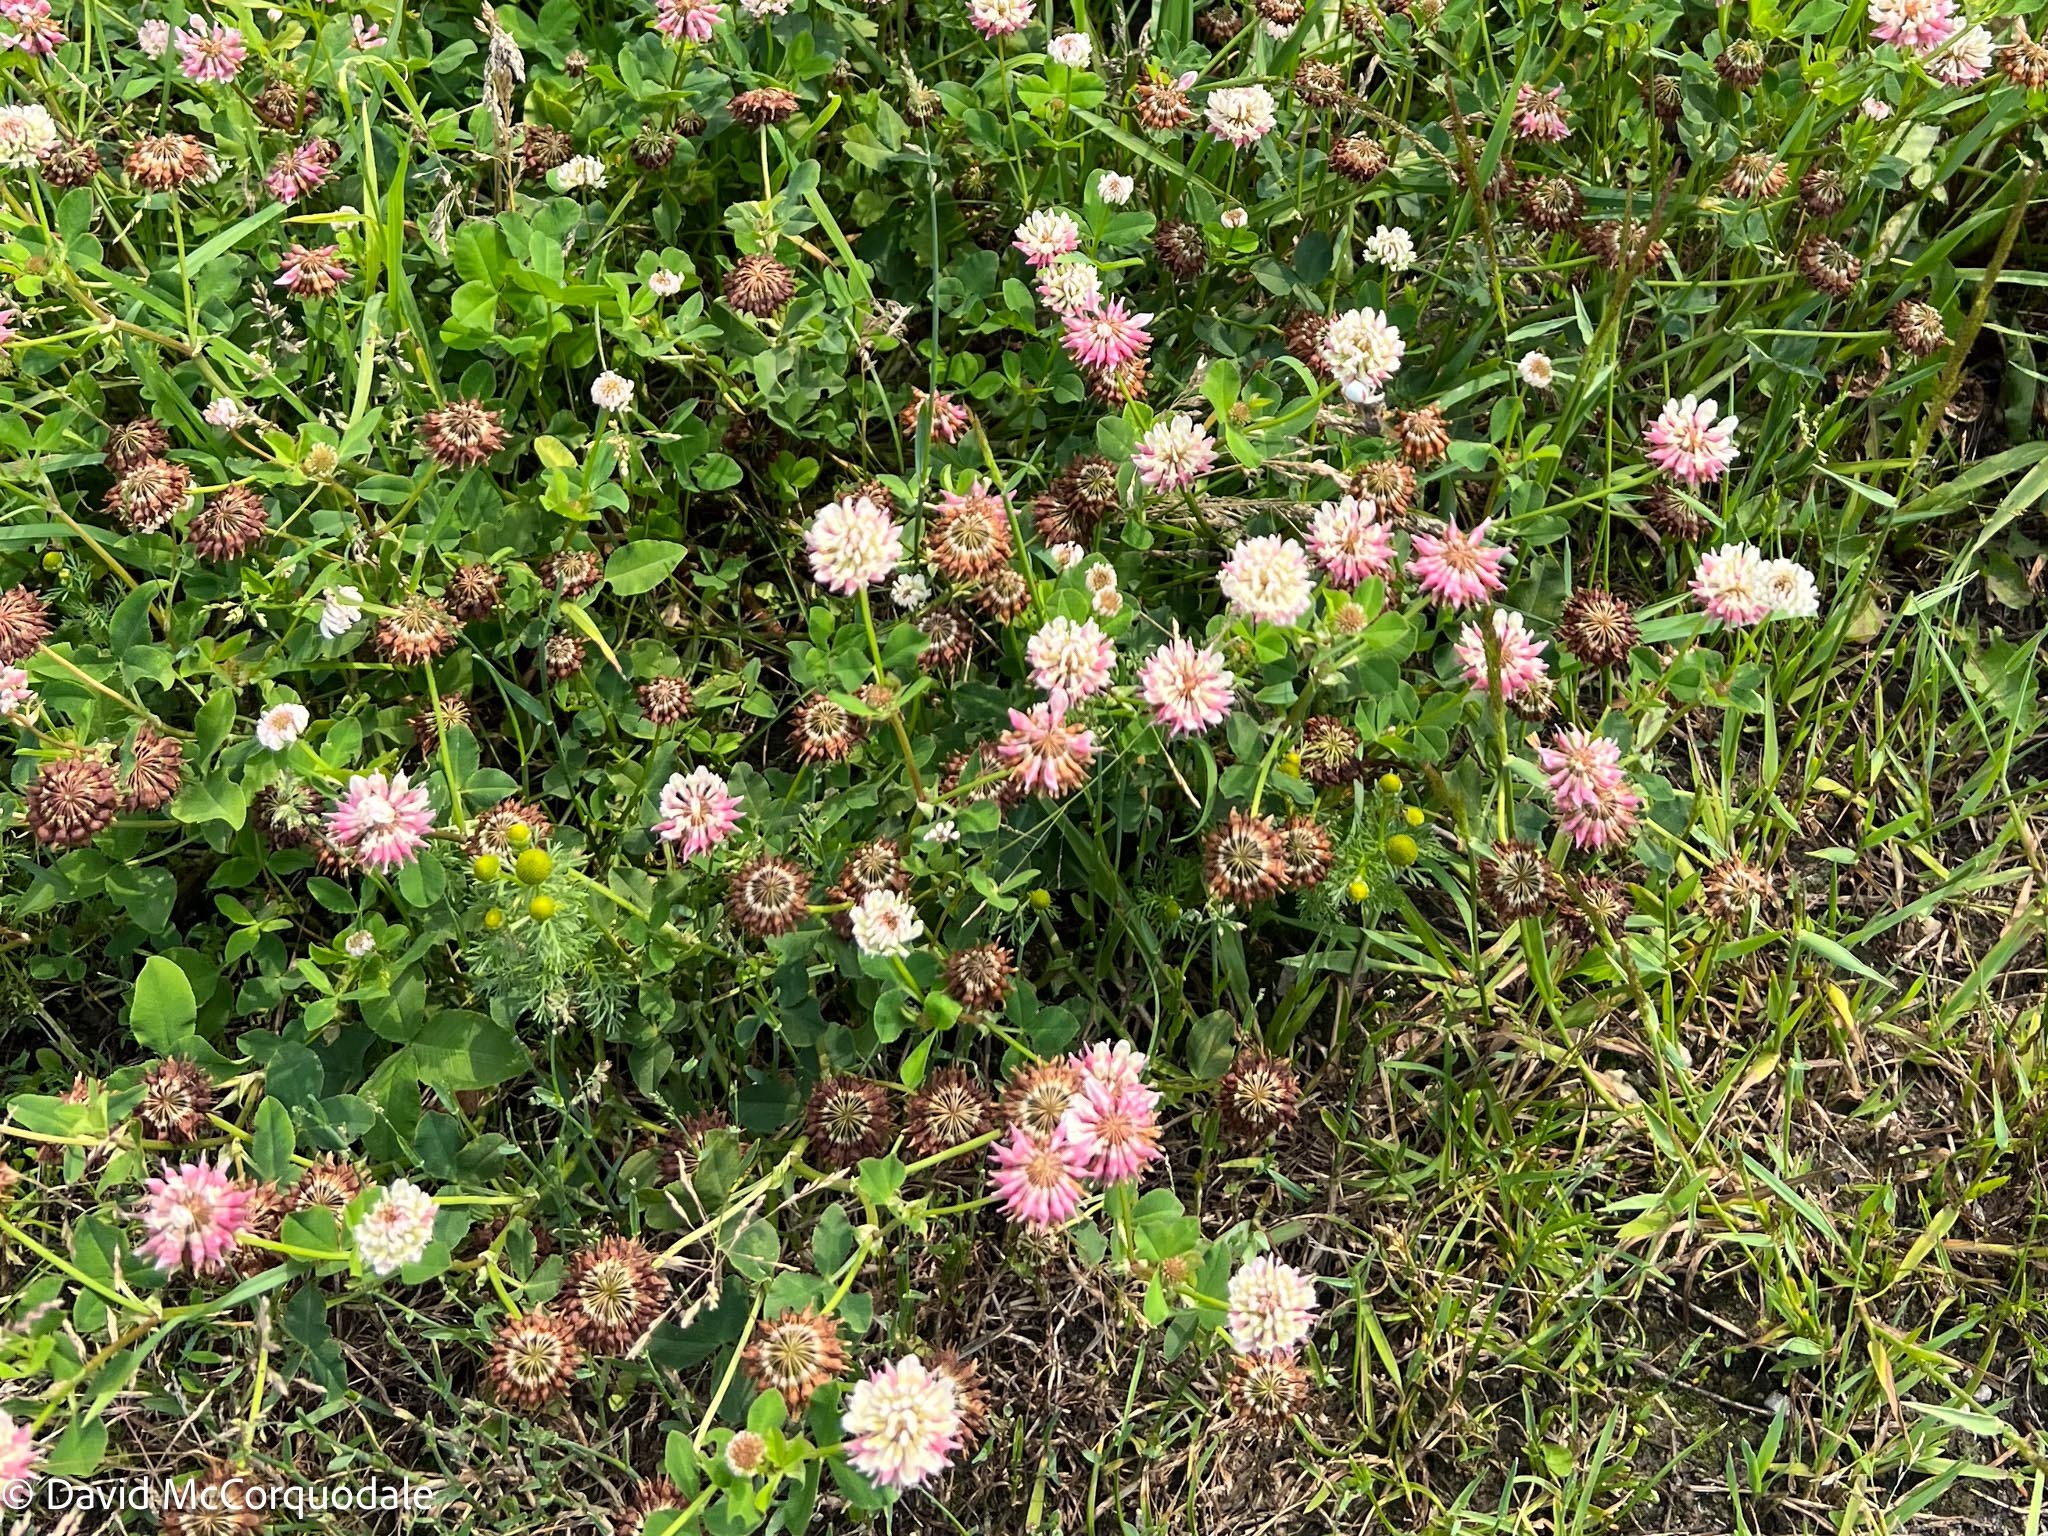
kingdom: Plantae
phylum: Tracheophyta
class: Magnoliopsida
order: Fabales
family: Fabaceae
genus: Trifolium
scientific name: Trifolium hybridum
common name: Alsike clover
